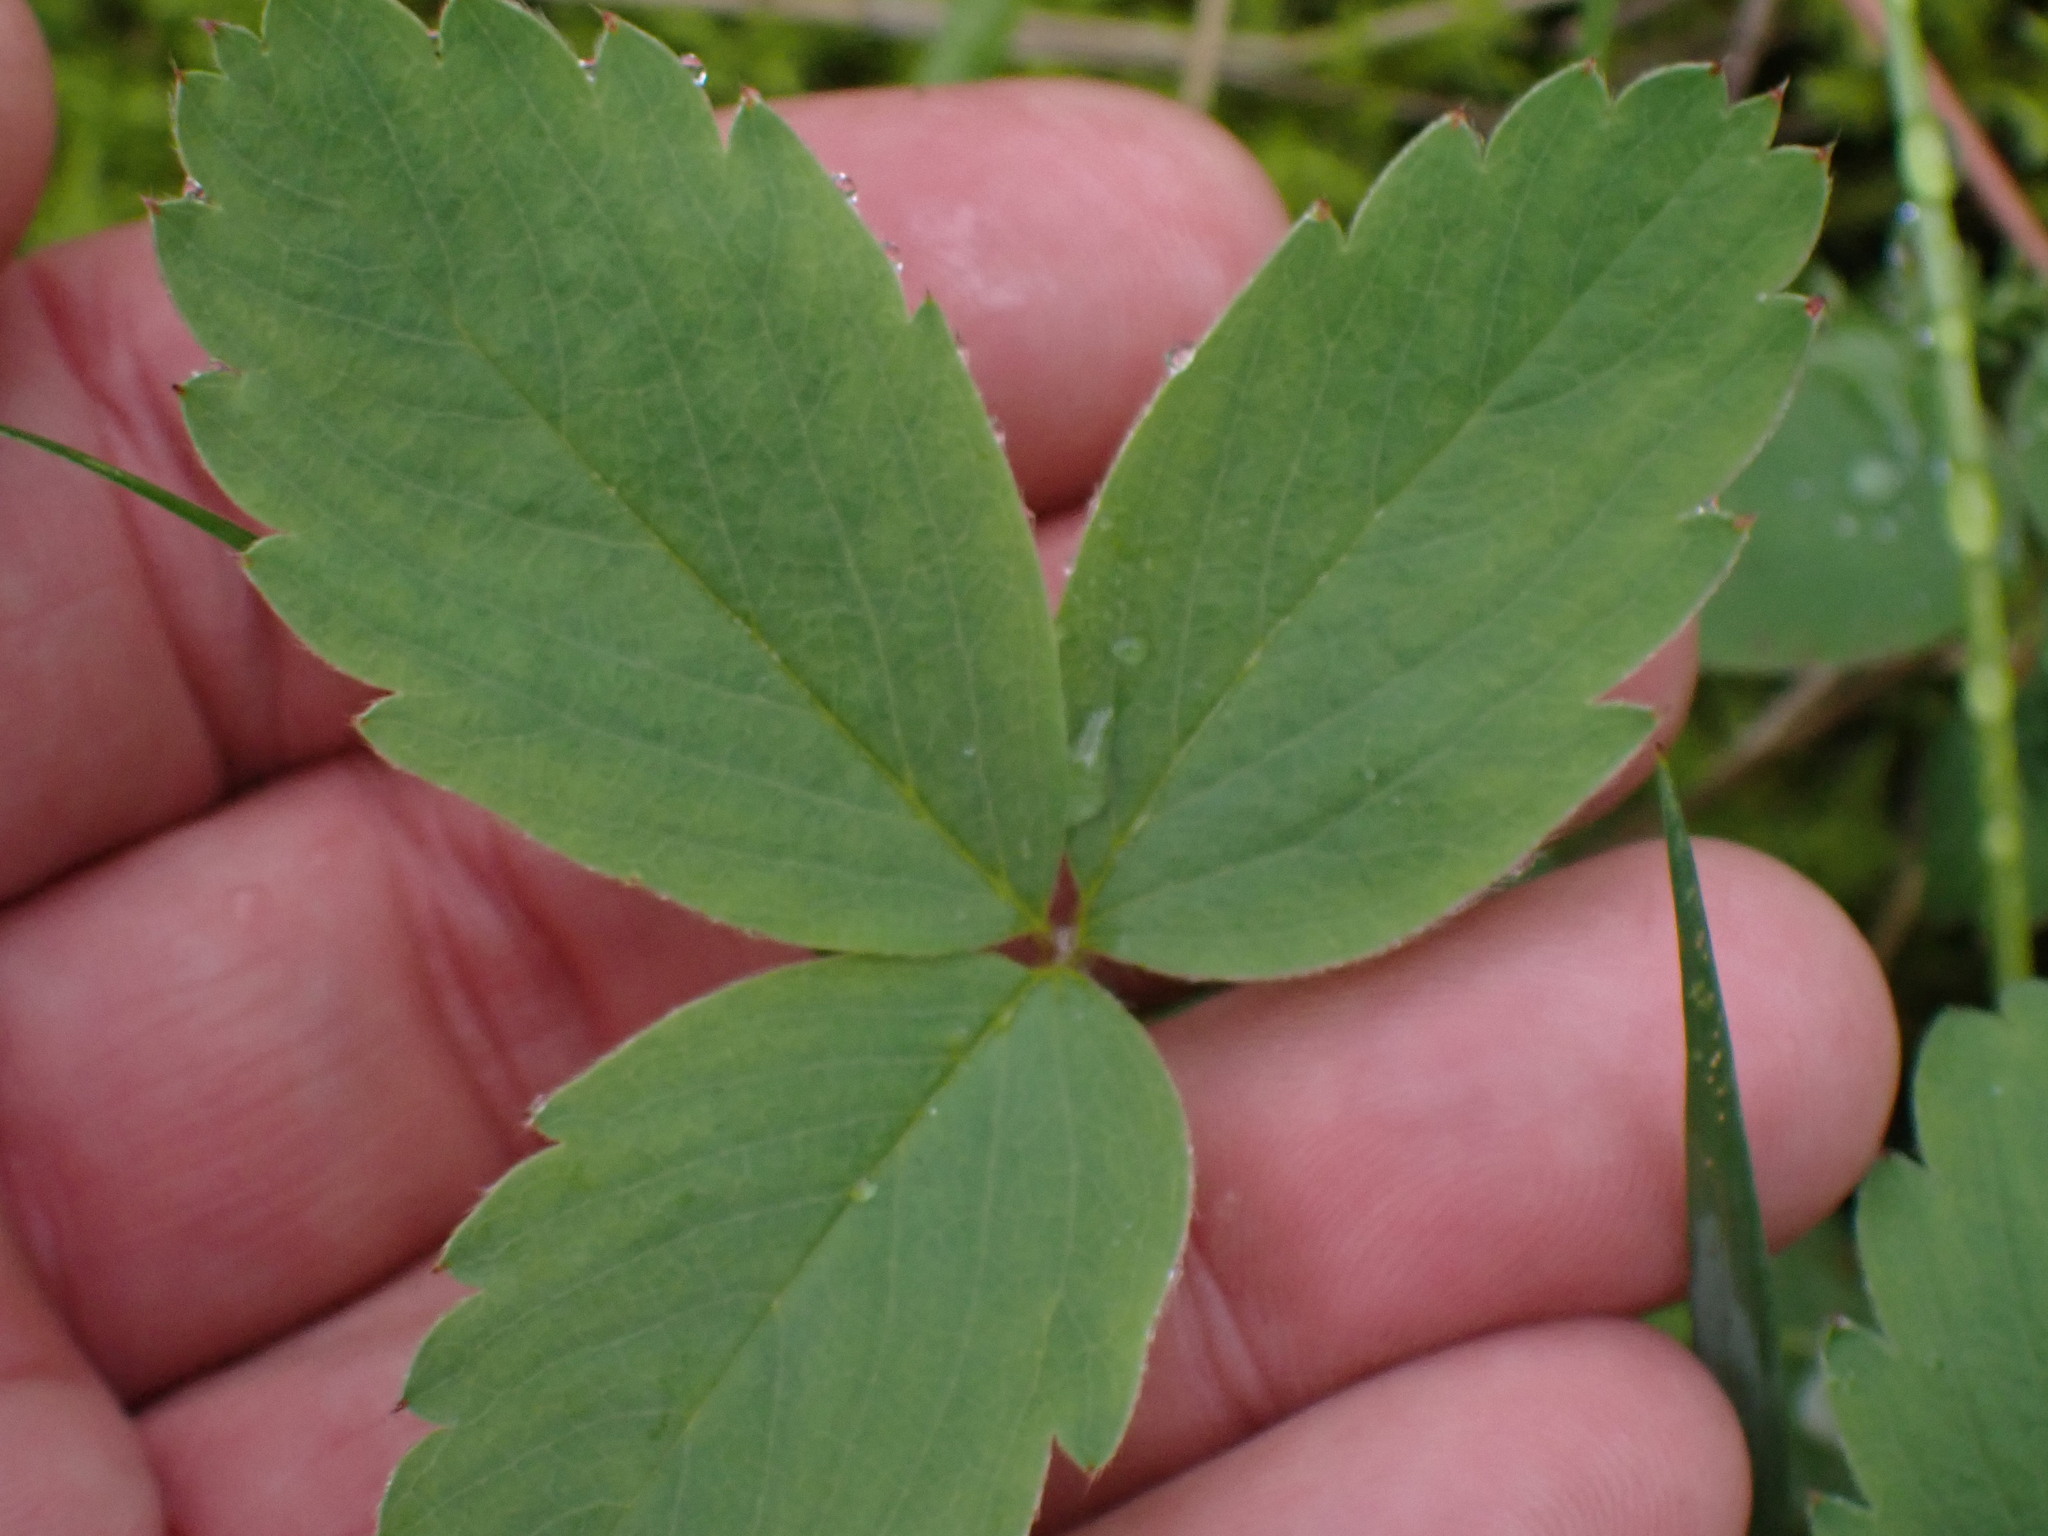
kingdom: Plantae
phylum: Tracheophyta
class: Magnoliopsida
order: Rosales
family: Rosaceae
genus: Fragaria
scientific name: Fragaria virginiana
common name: Thickleaved wild strawberry
